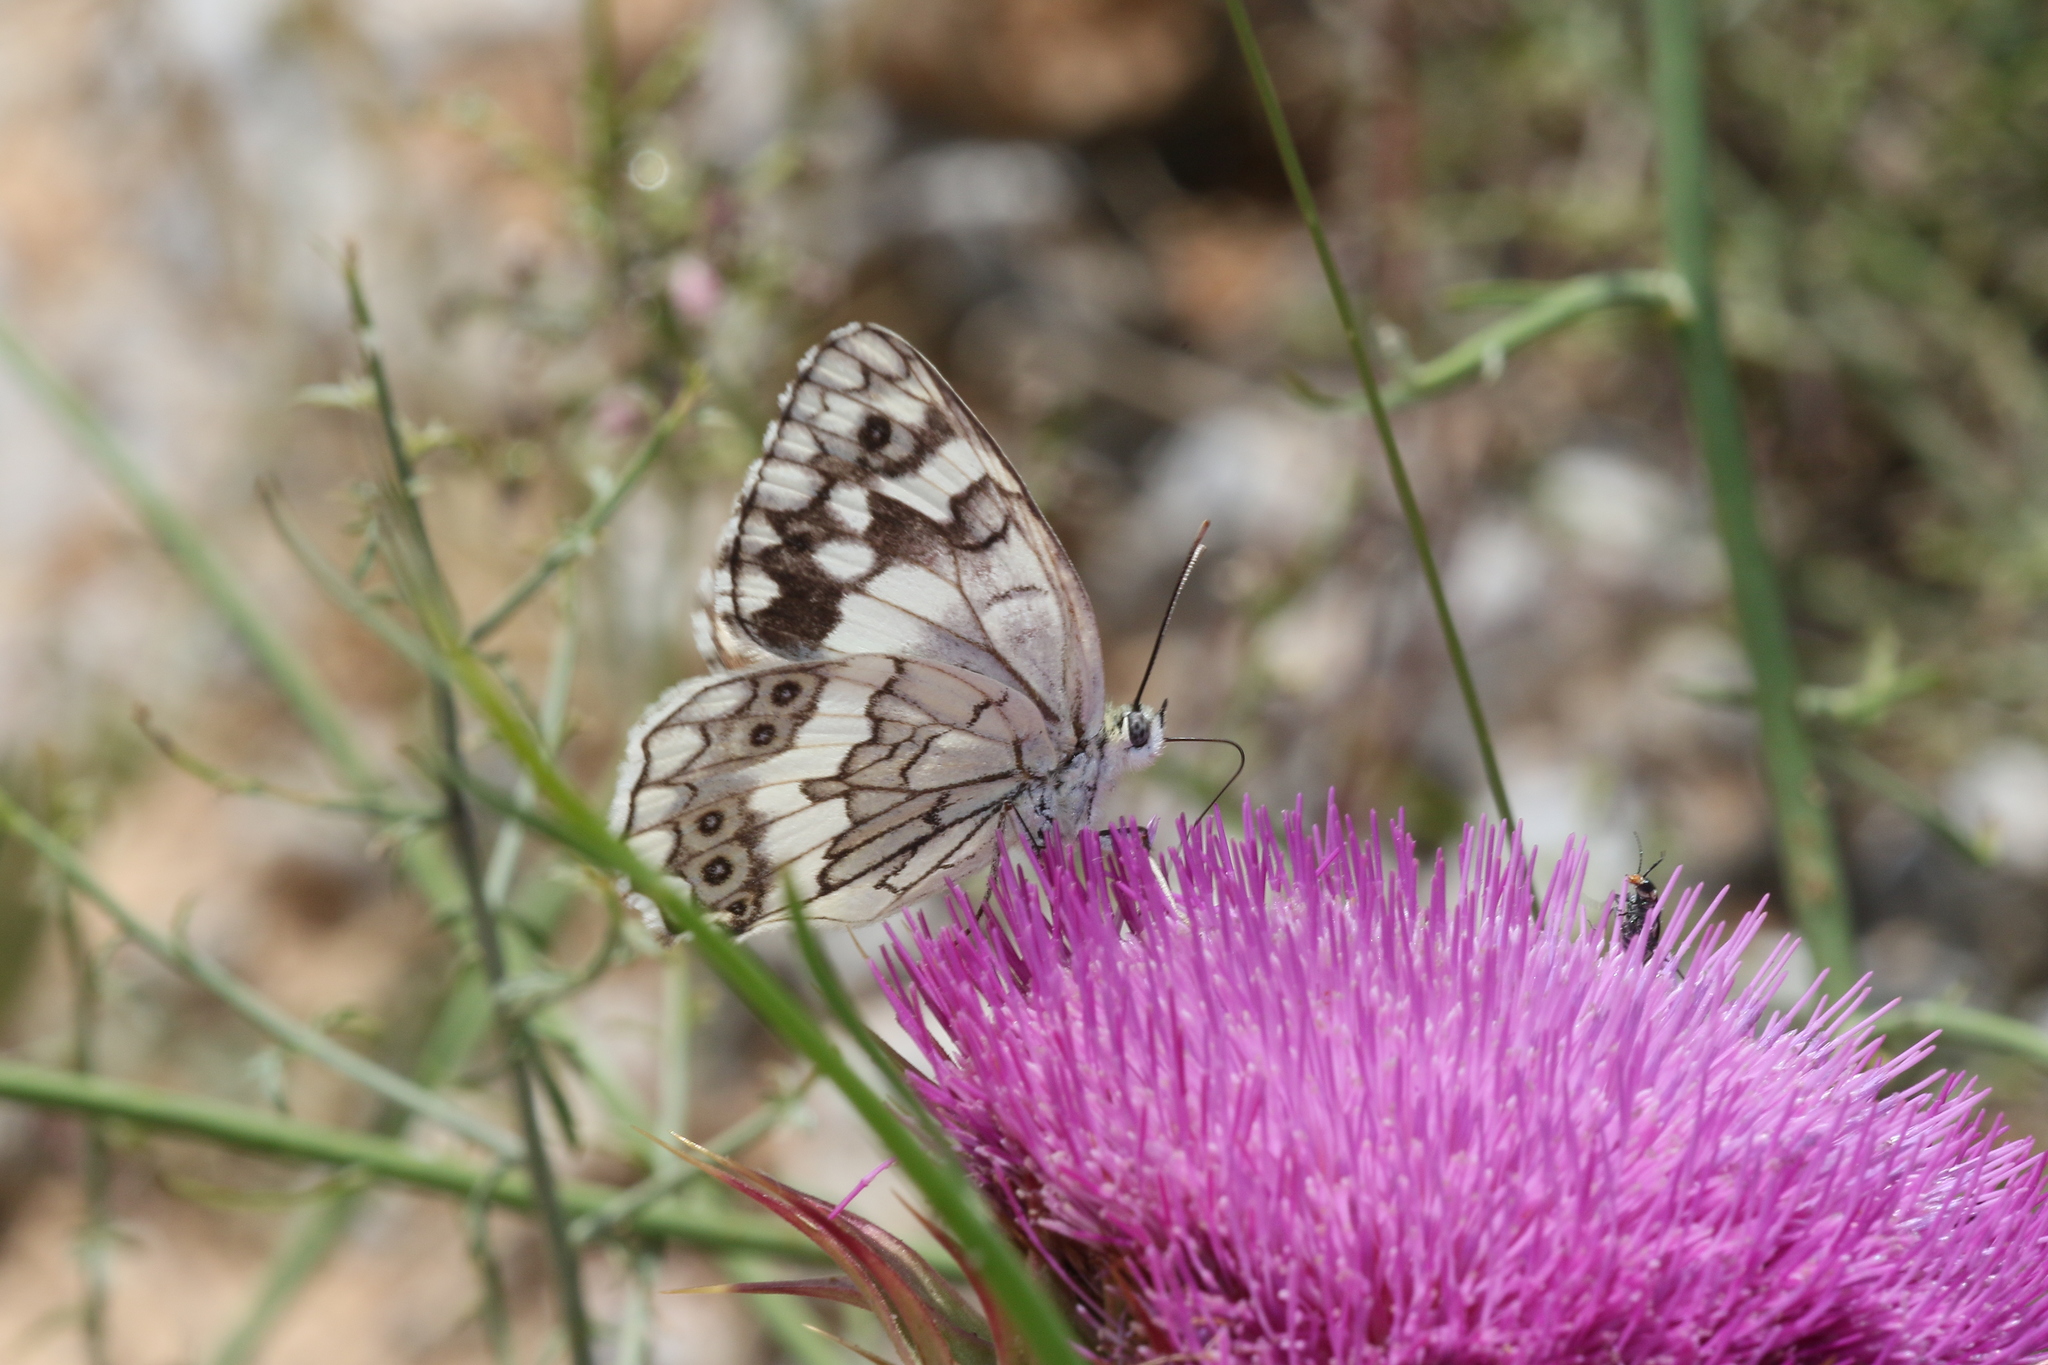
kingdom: Animalia
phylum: Arthropoda
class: Insecta
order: Lepidoptera
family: Nymphalidae
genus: Melanargia
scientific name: Melanargia larissa
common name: Balkan marbled white
